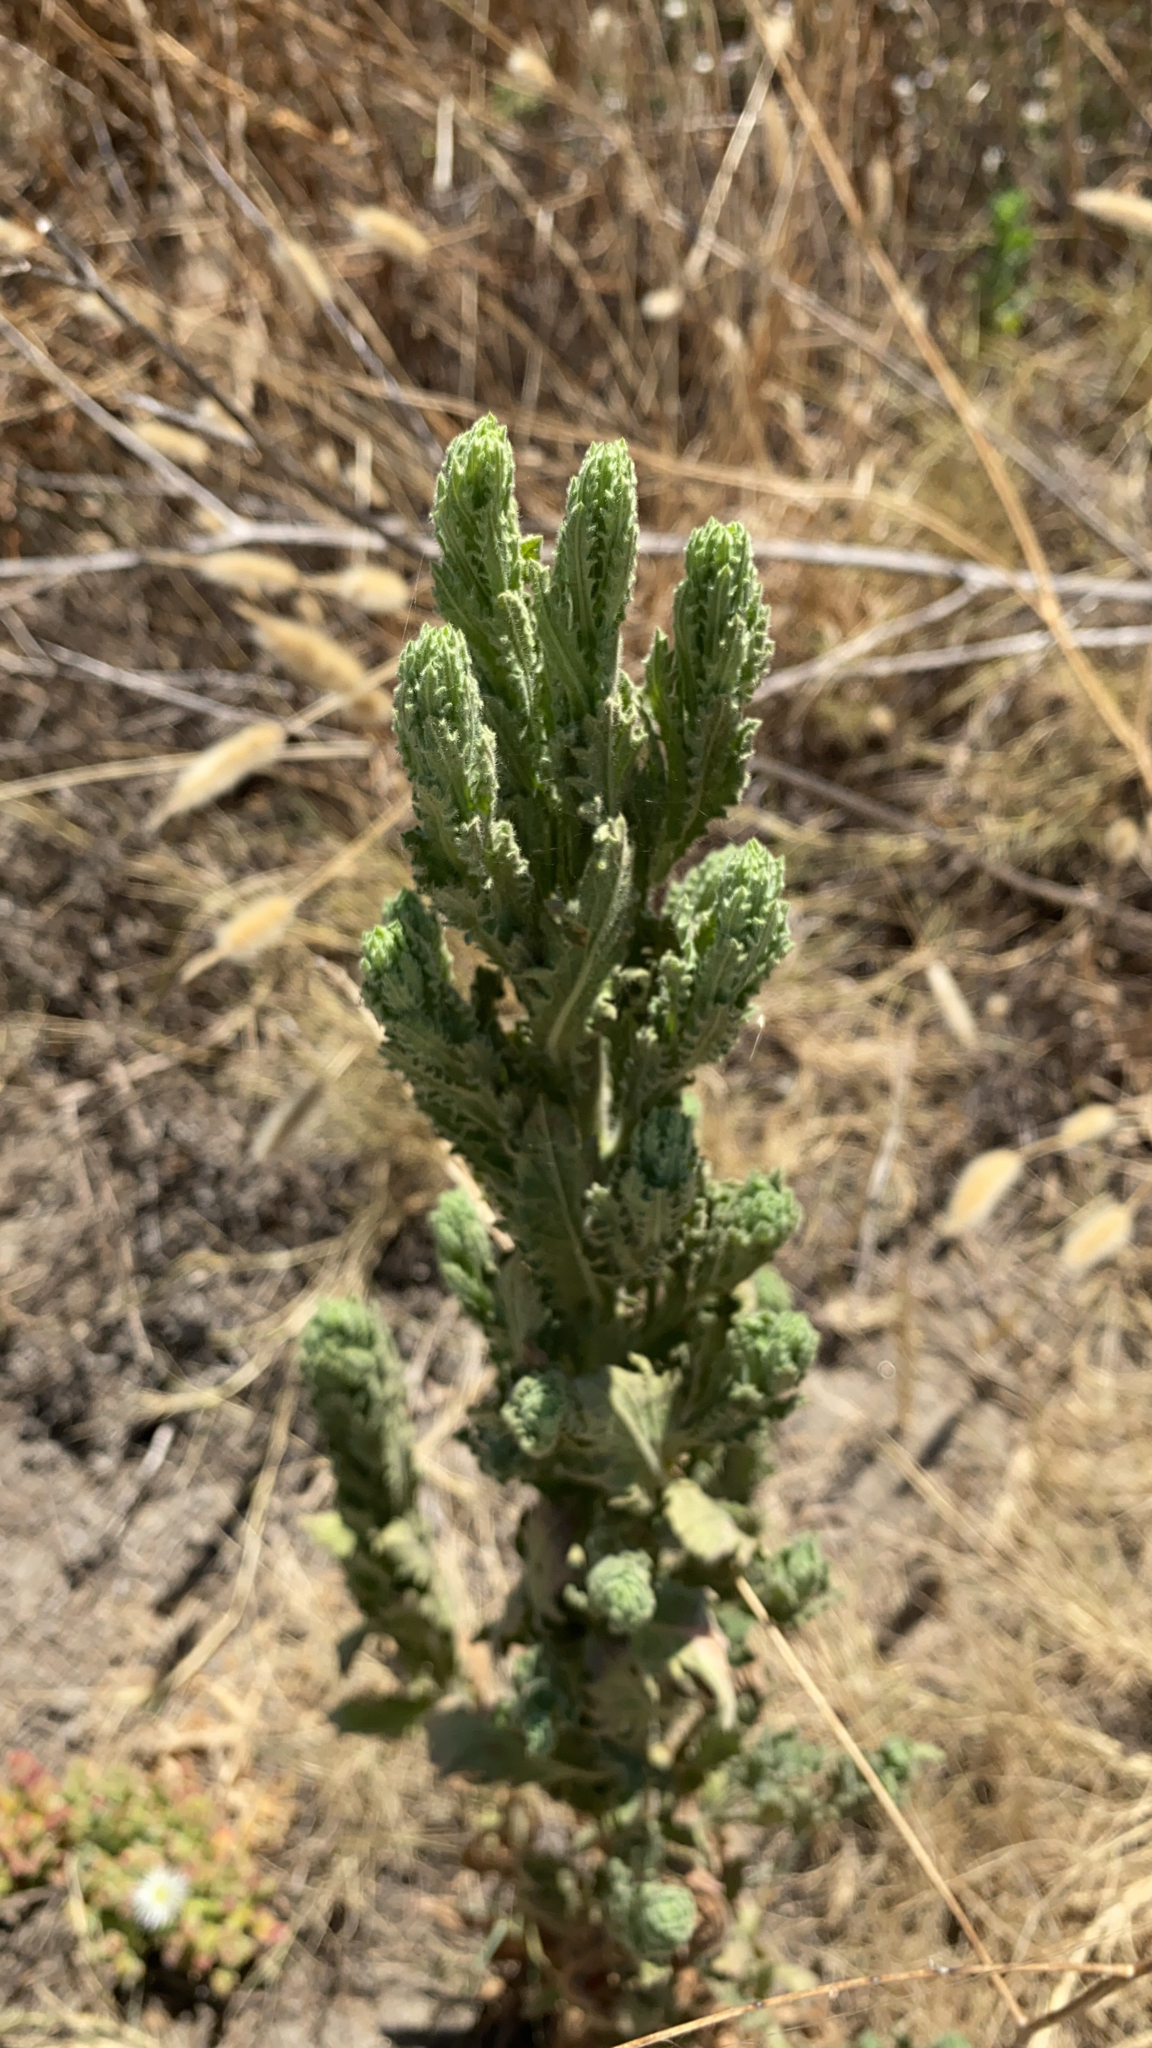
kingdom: Plantae
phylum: Tracheophyta
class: Magnoliopsida
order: Asterales
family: Asteraceae
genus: Laennecia
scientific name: Laennecia coulteri
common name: Coulter's woolwort
